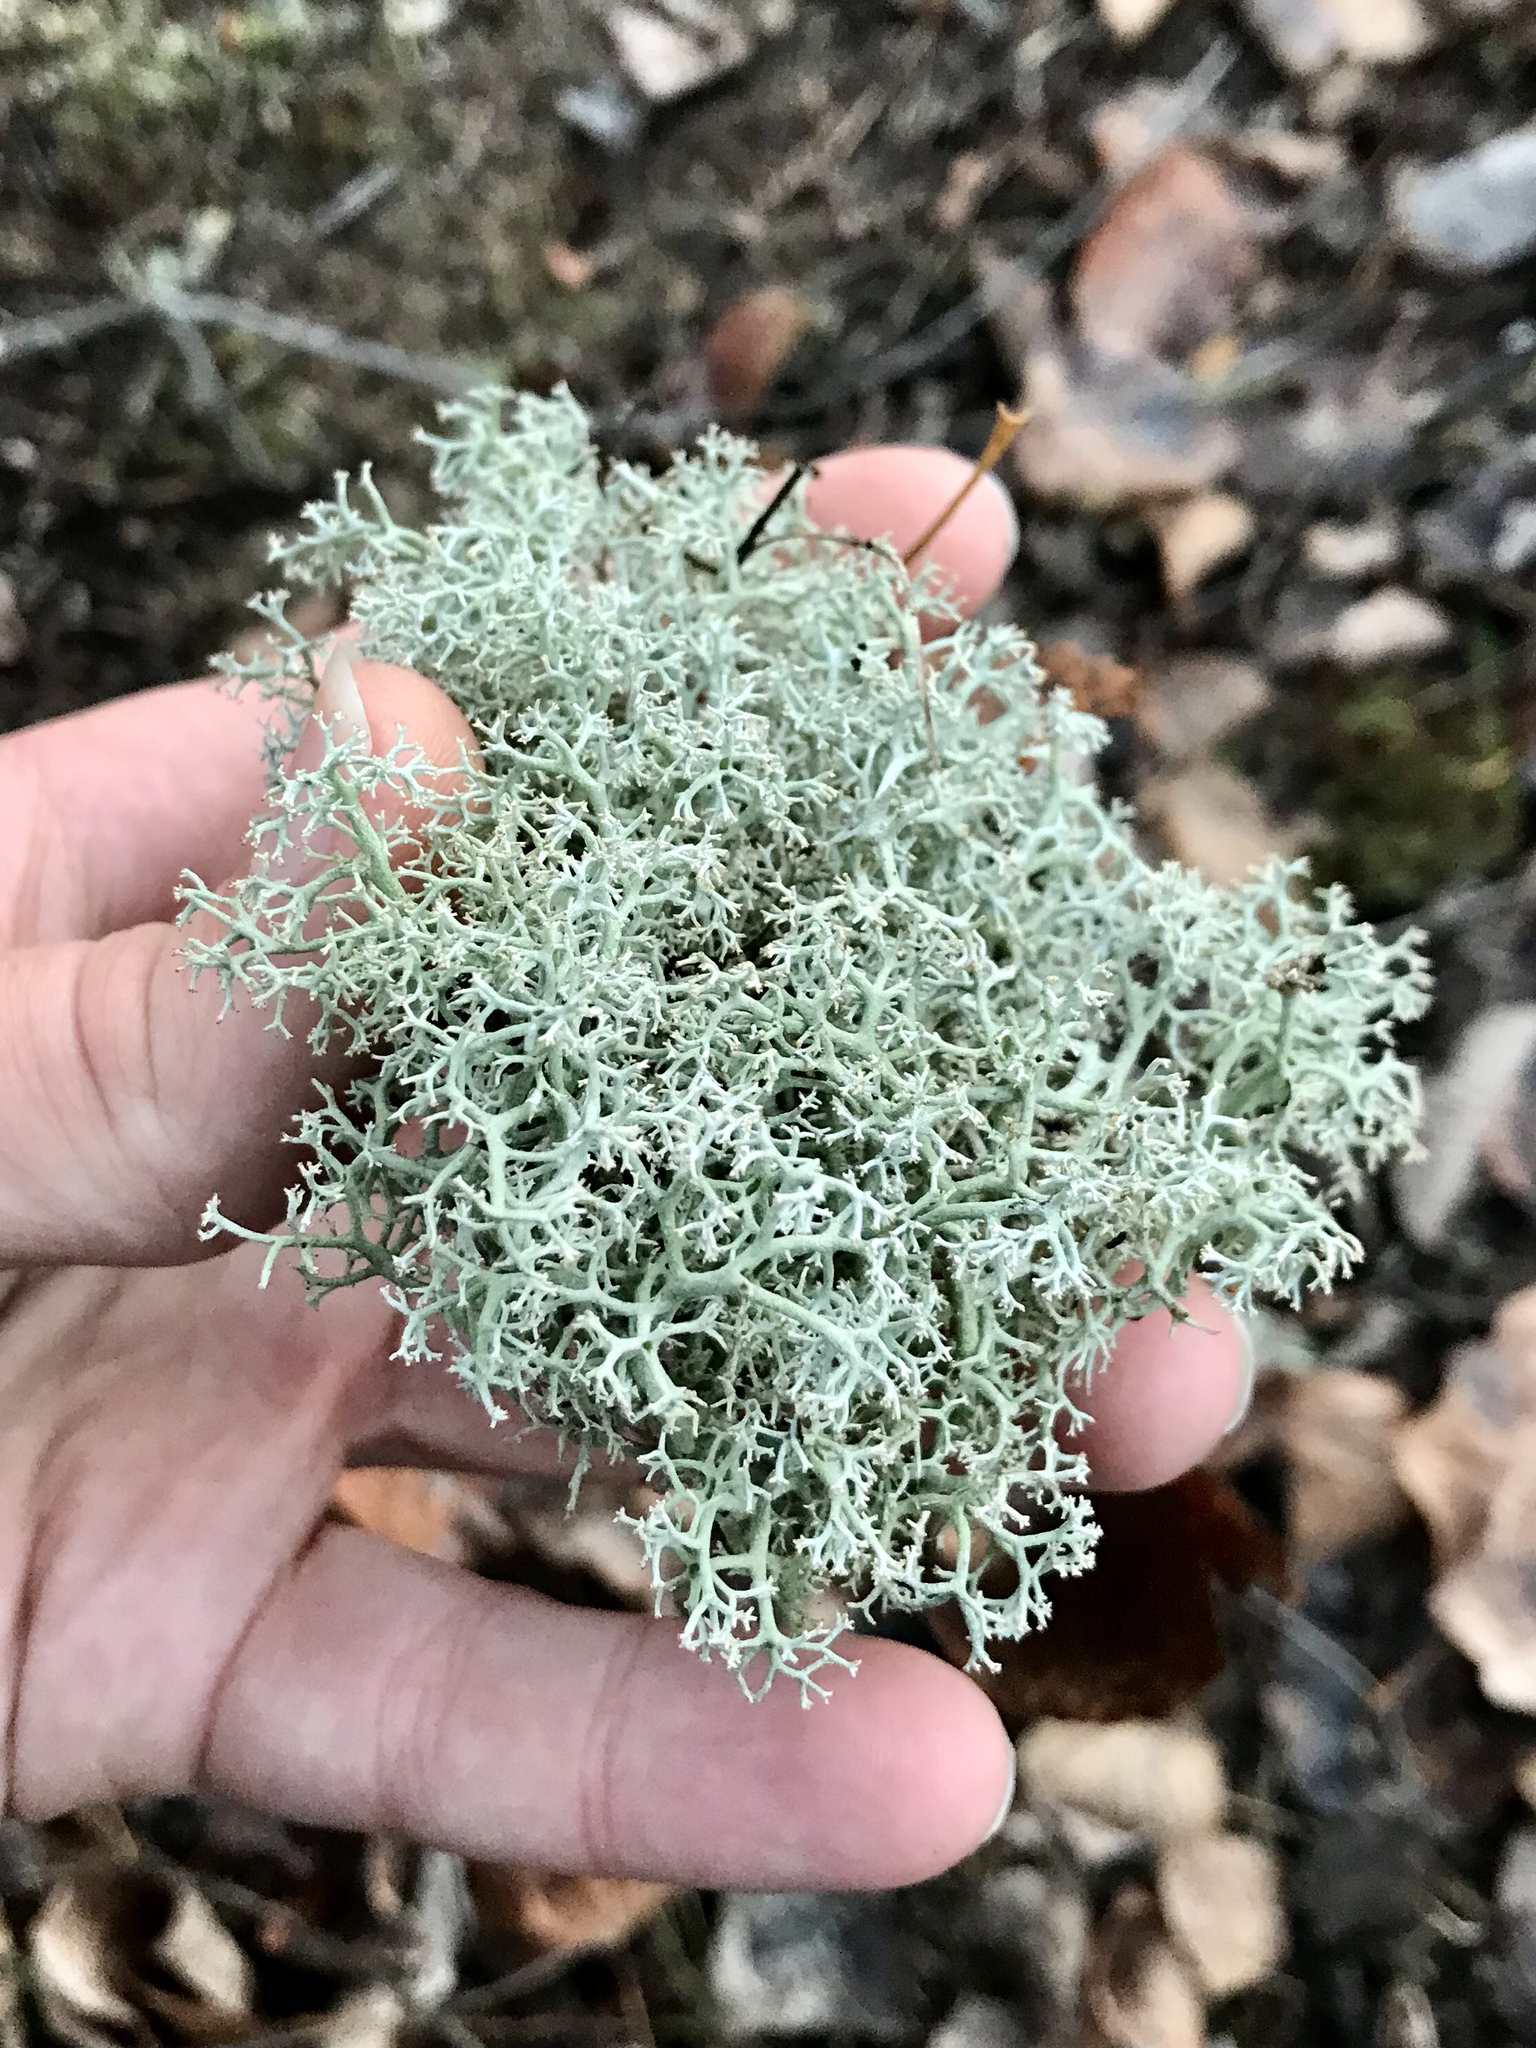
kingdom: Fungi
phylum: Ascomycota
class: Lecanoromycetes
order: Lecanorales
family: Cladoniaceae
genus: Cladonia
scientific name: Cladonia arbuscula
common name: Reindeer lichen
